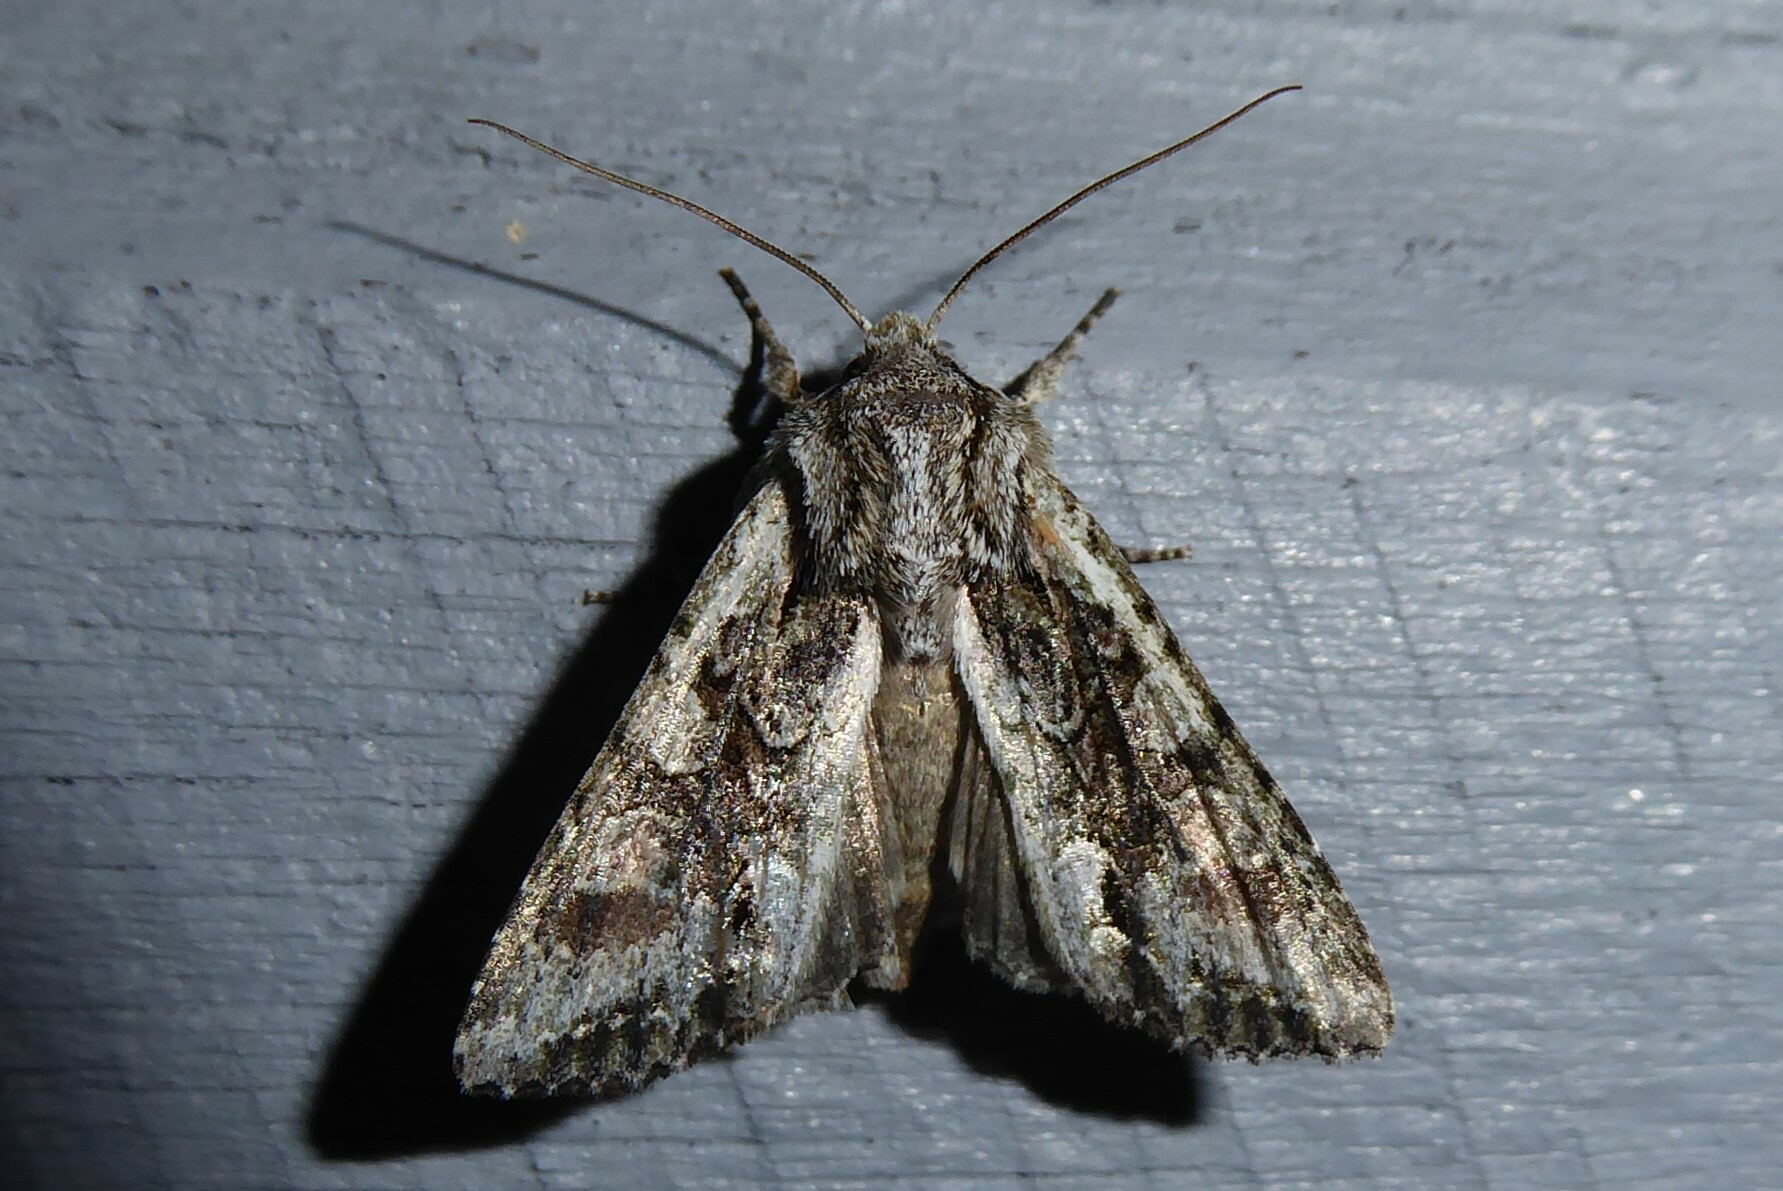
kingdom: Animalia
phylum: Arthropoda
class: Insecta
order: Lepidoptera
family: Noctuidae
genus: Ichneutica
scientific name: Ichneutica mutans
